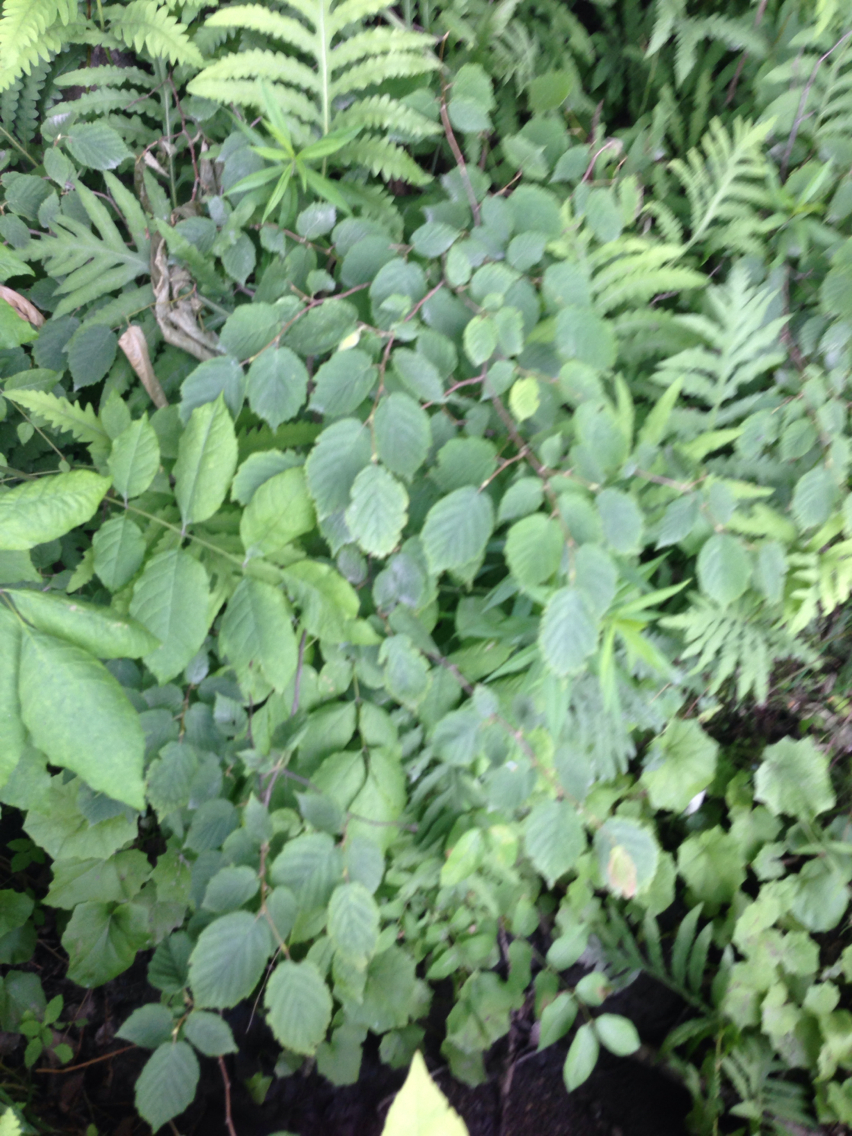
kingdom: Plantae
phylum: Tracheophyta
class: Magnoliopsida
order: Fagales
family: Betulaceae
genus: Corylus
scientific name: Corylus cornuta
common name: Beaked hazel
